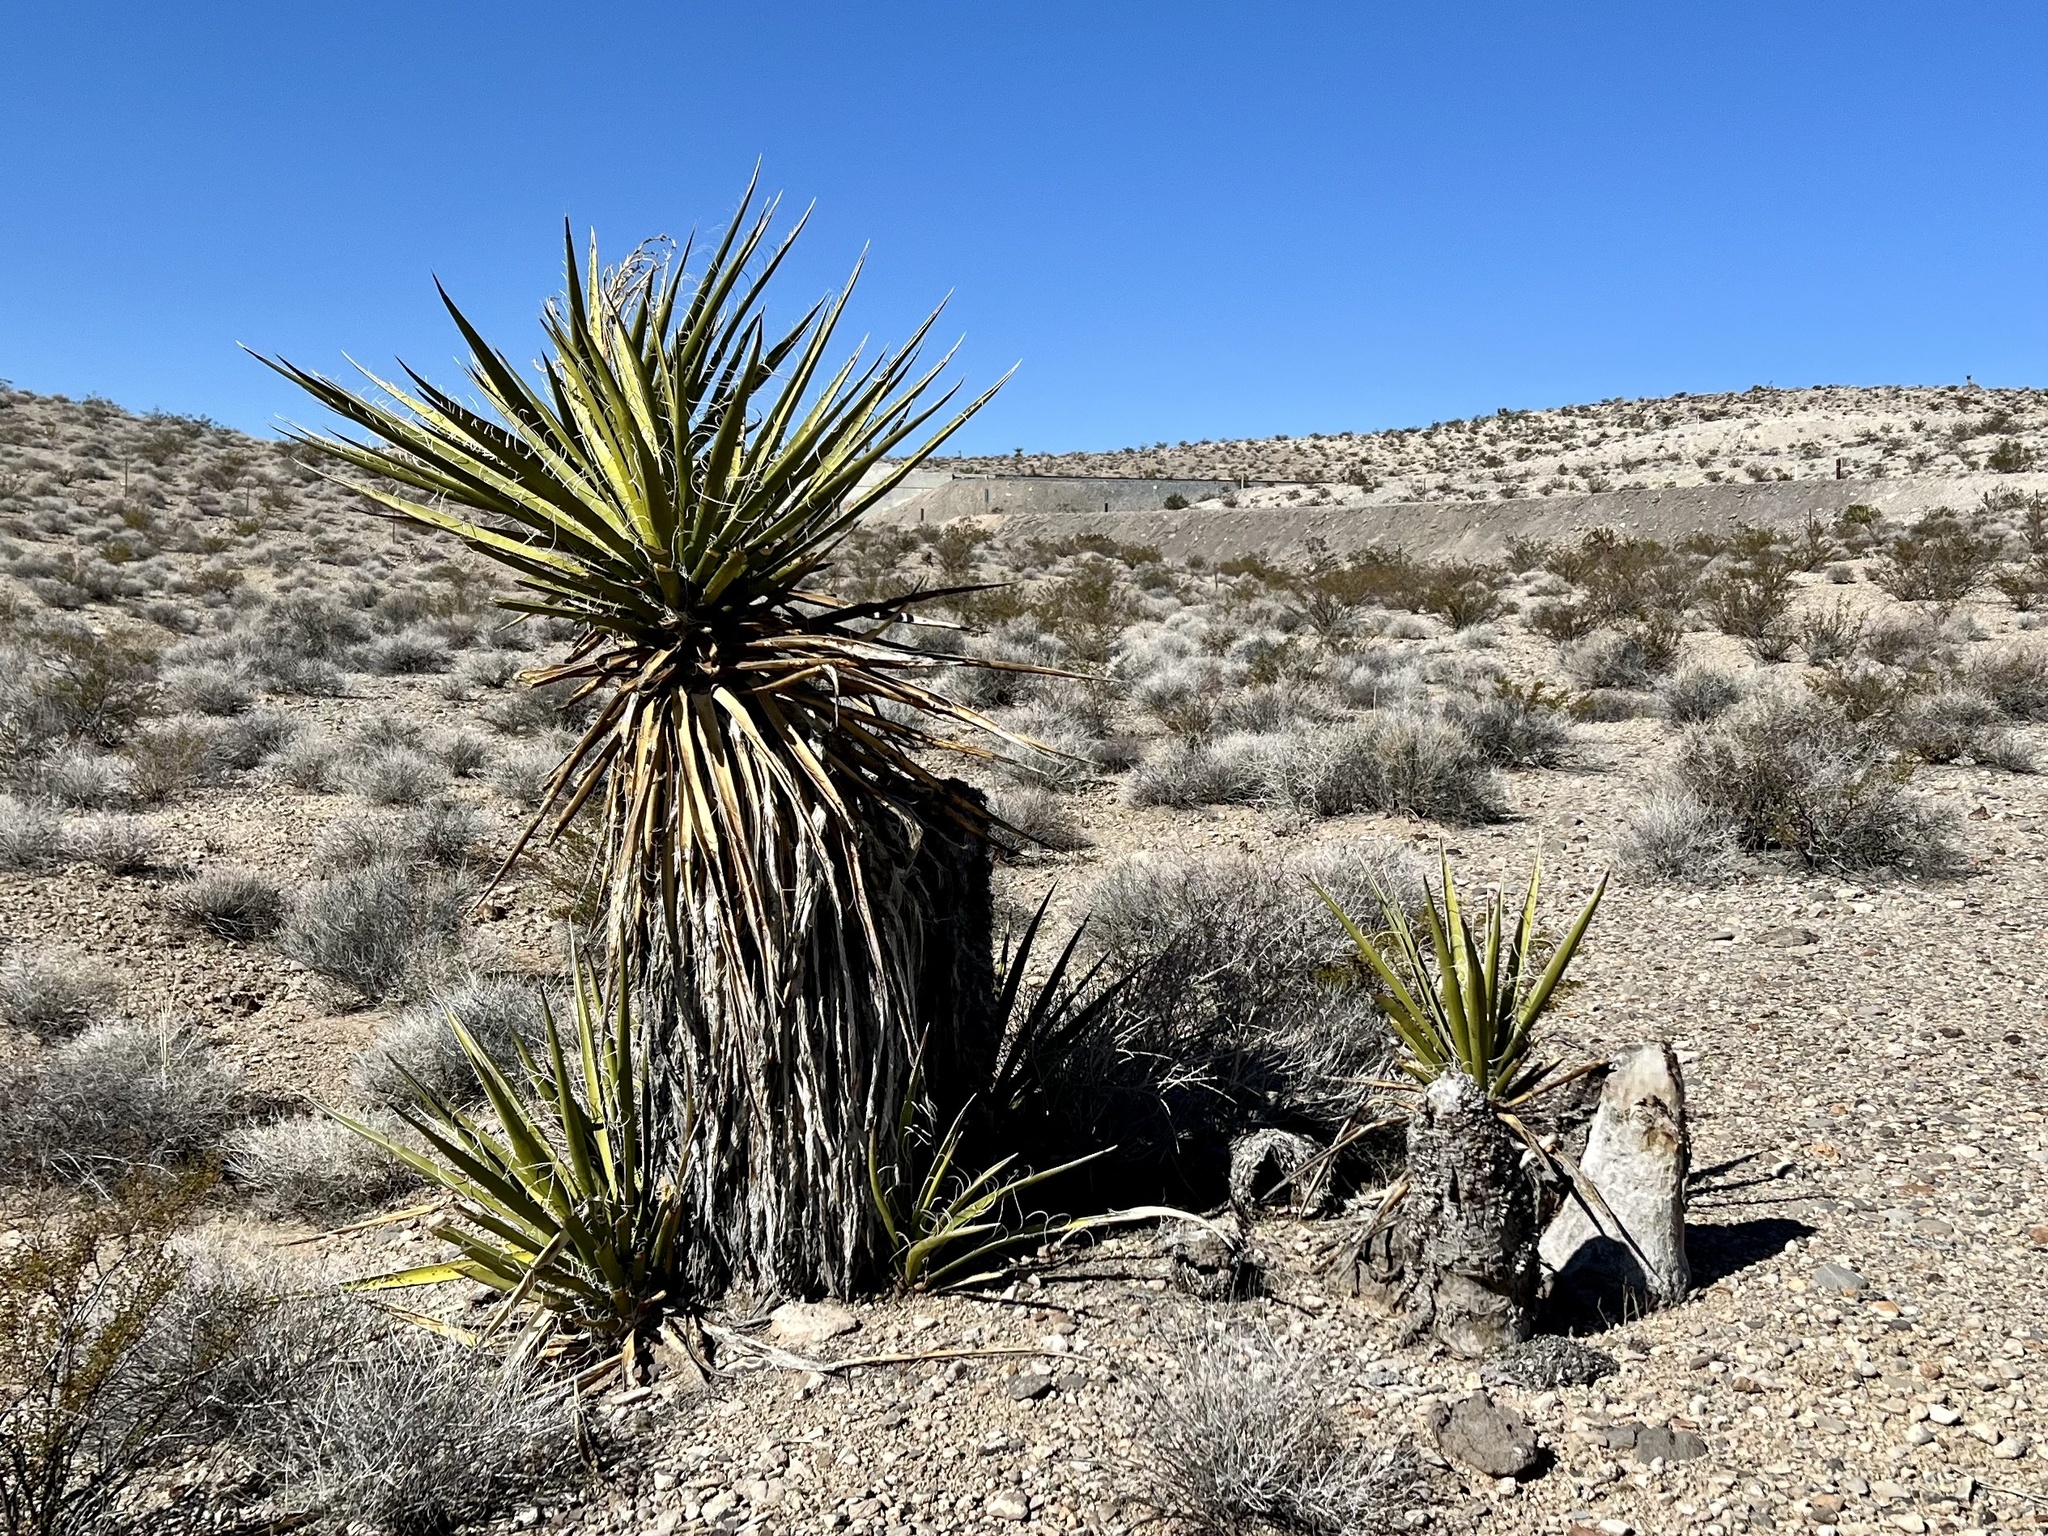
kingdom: Plantae
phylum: Tracheophyta
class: Liliopsida
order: Asparagales
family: Asparagaceae
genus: Yucca
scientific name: Yucca schidigera
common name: Mojave yucca
